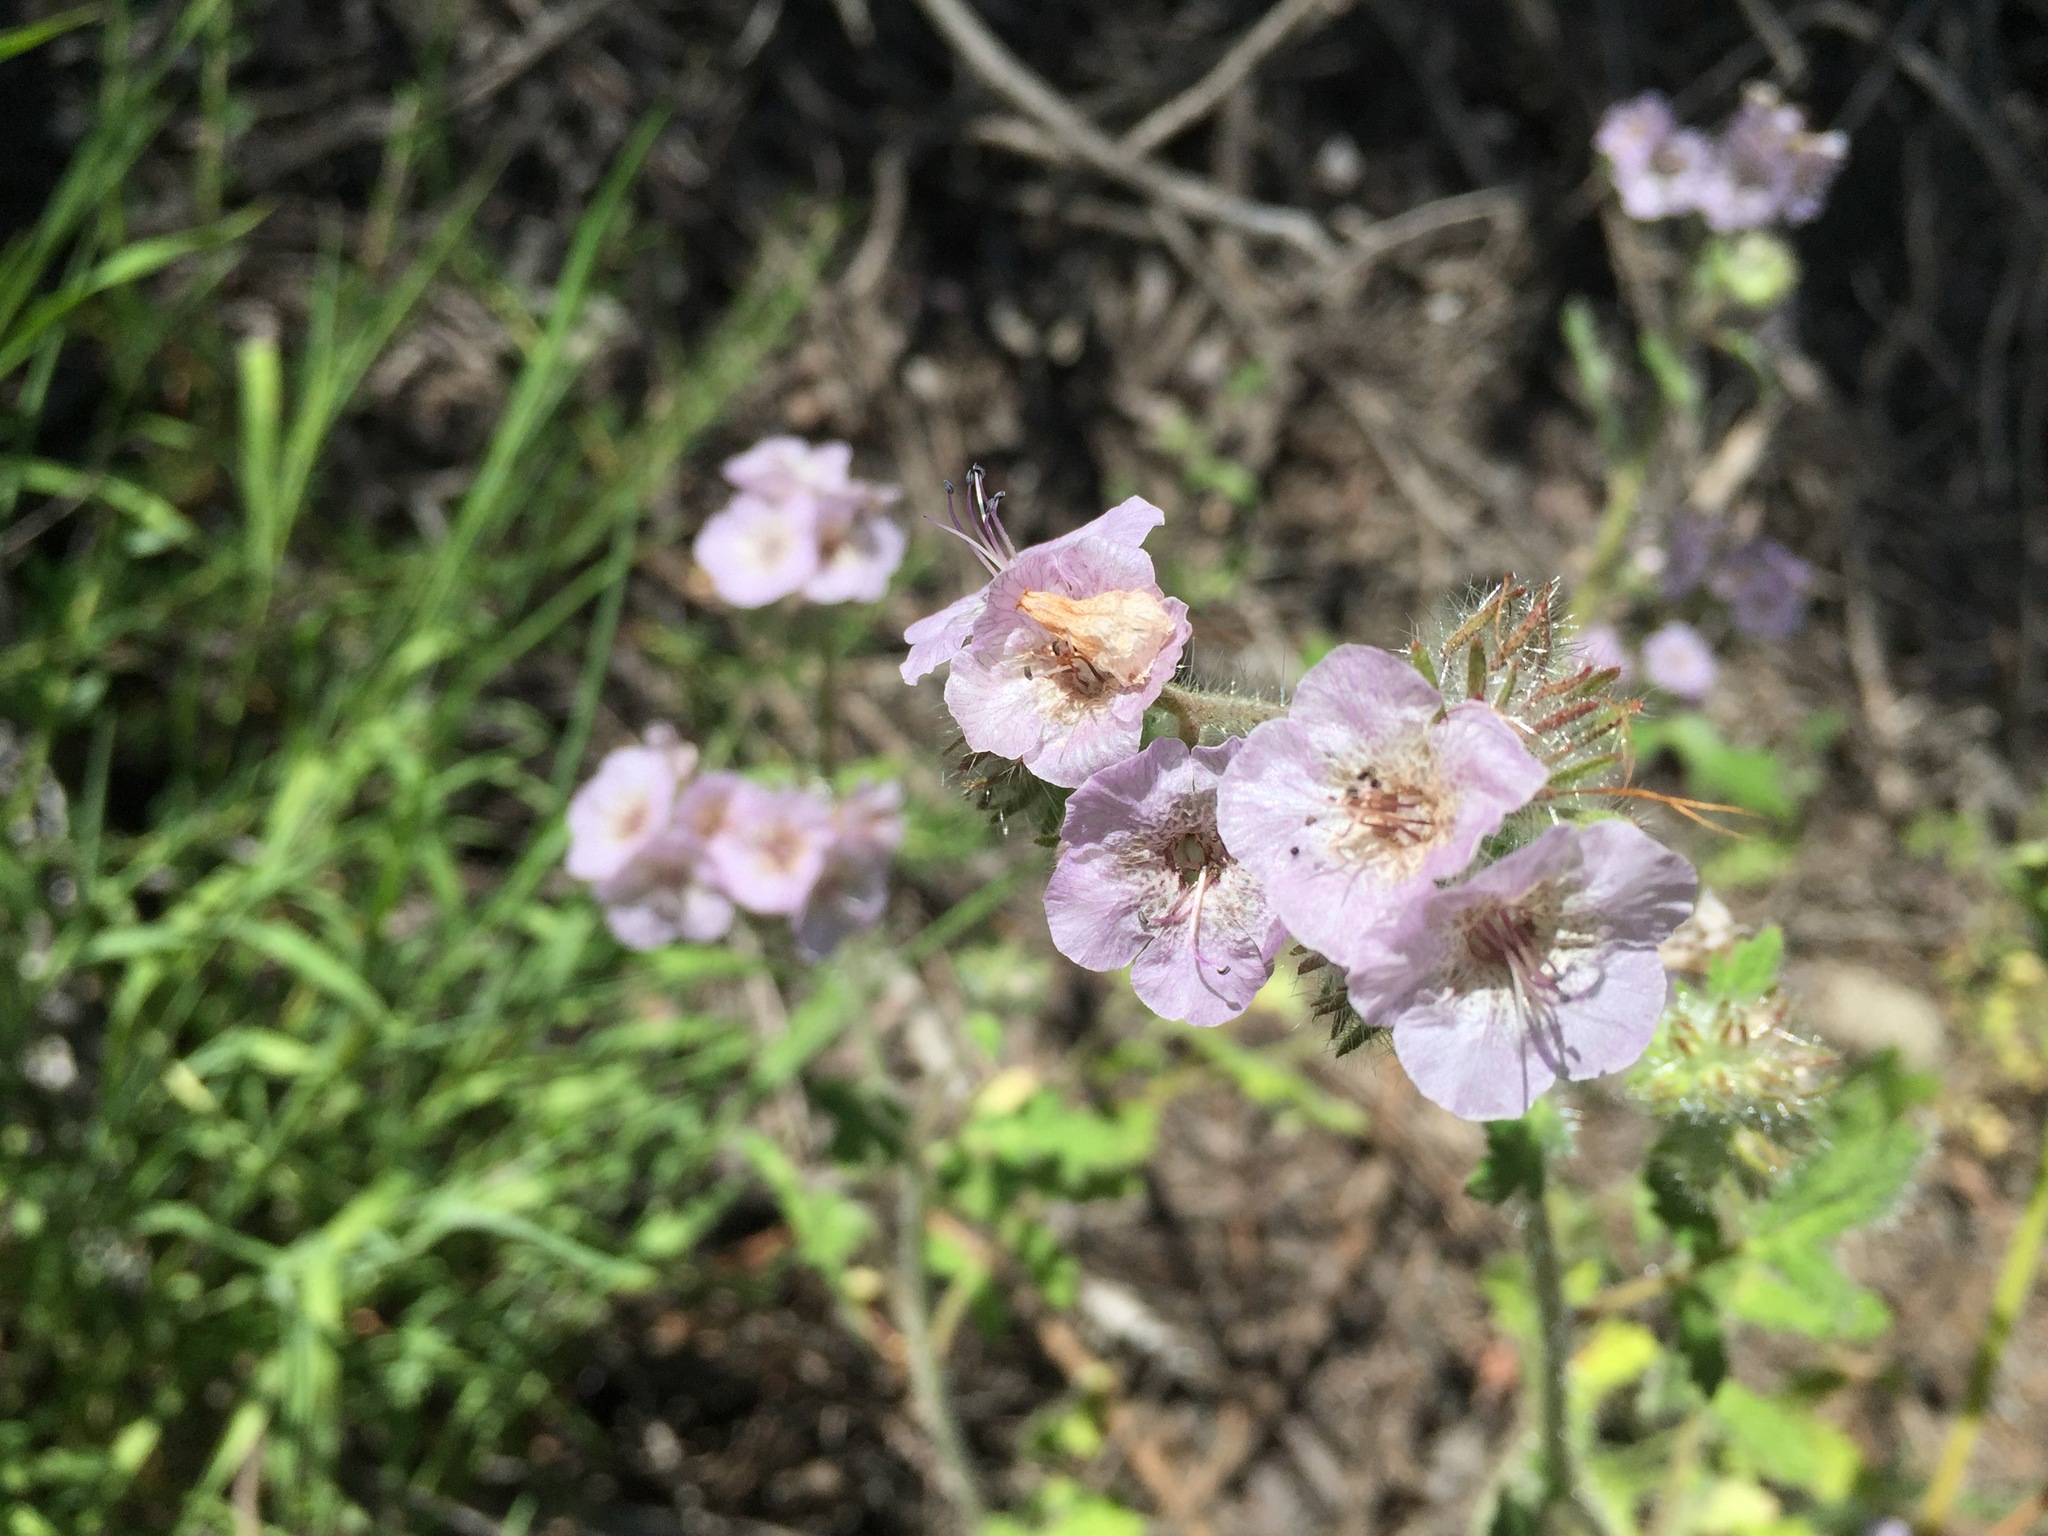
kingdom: Plantae
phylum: Tracheophyta
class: Magnoliopsida
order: Boraginales
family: Hydrophyllaceae
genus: Phacelia
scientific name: Phacelia cicutaria
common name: Caterpillar phacelia
